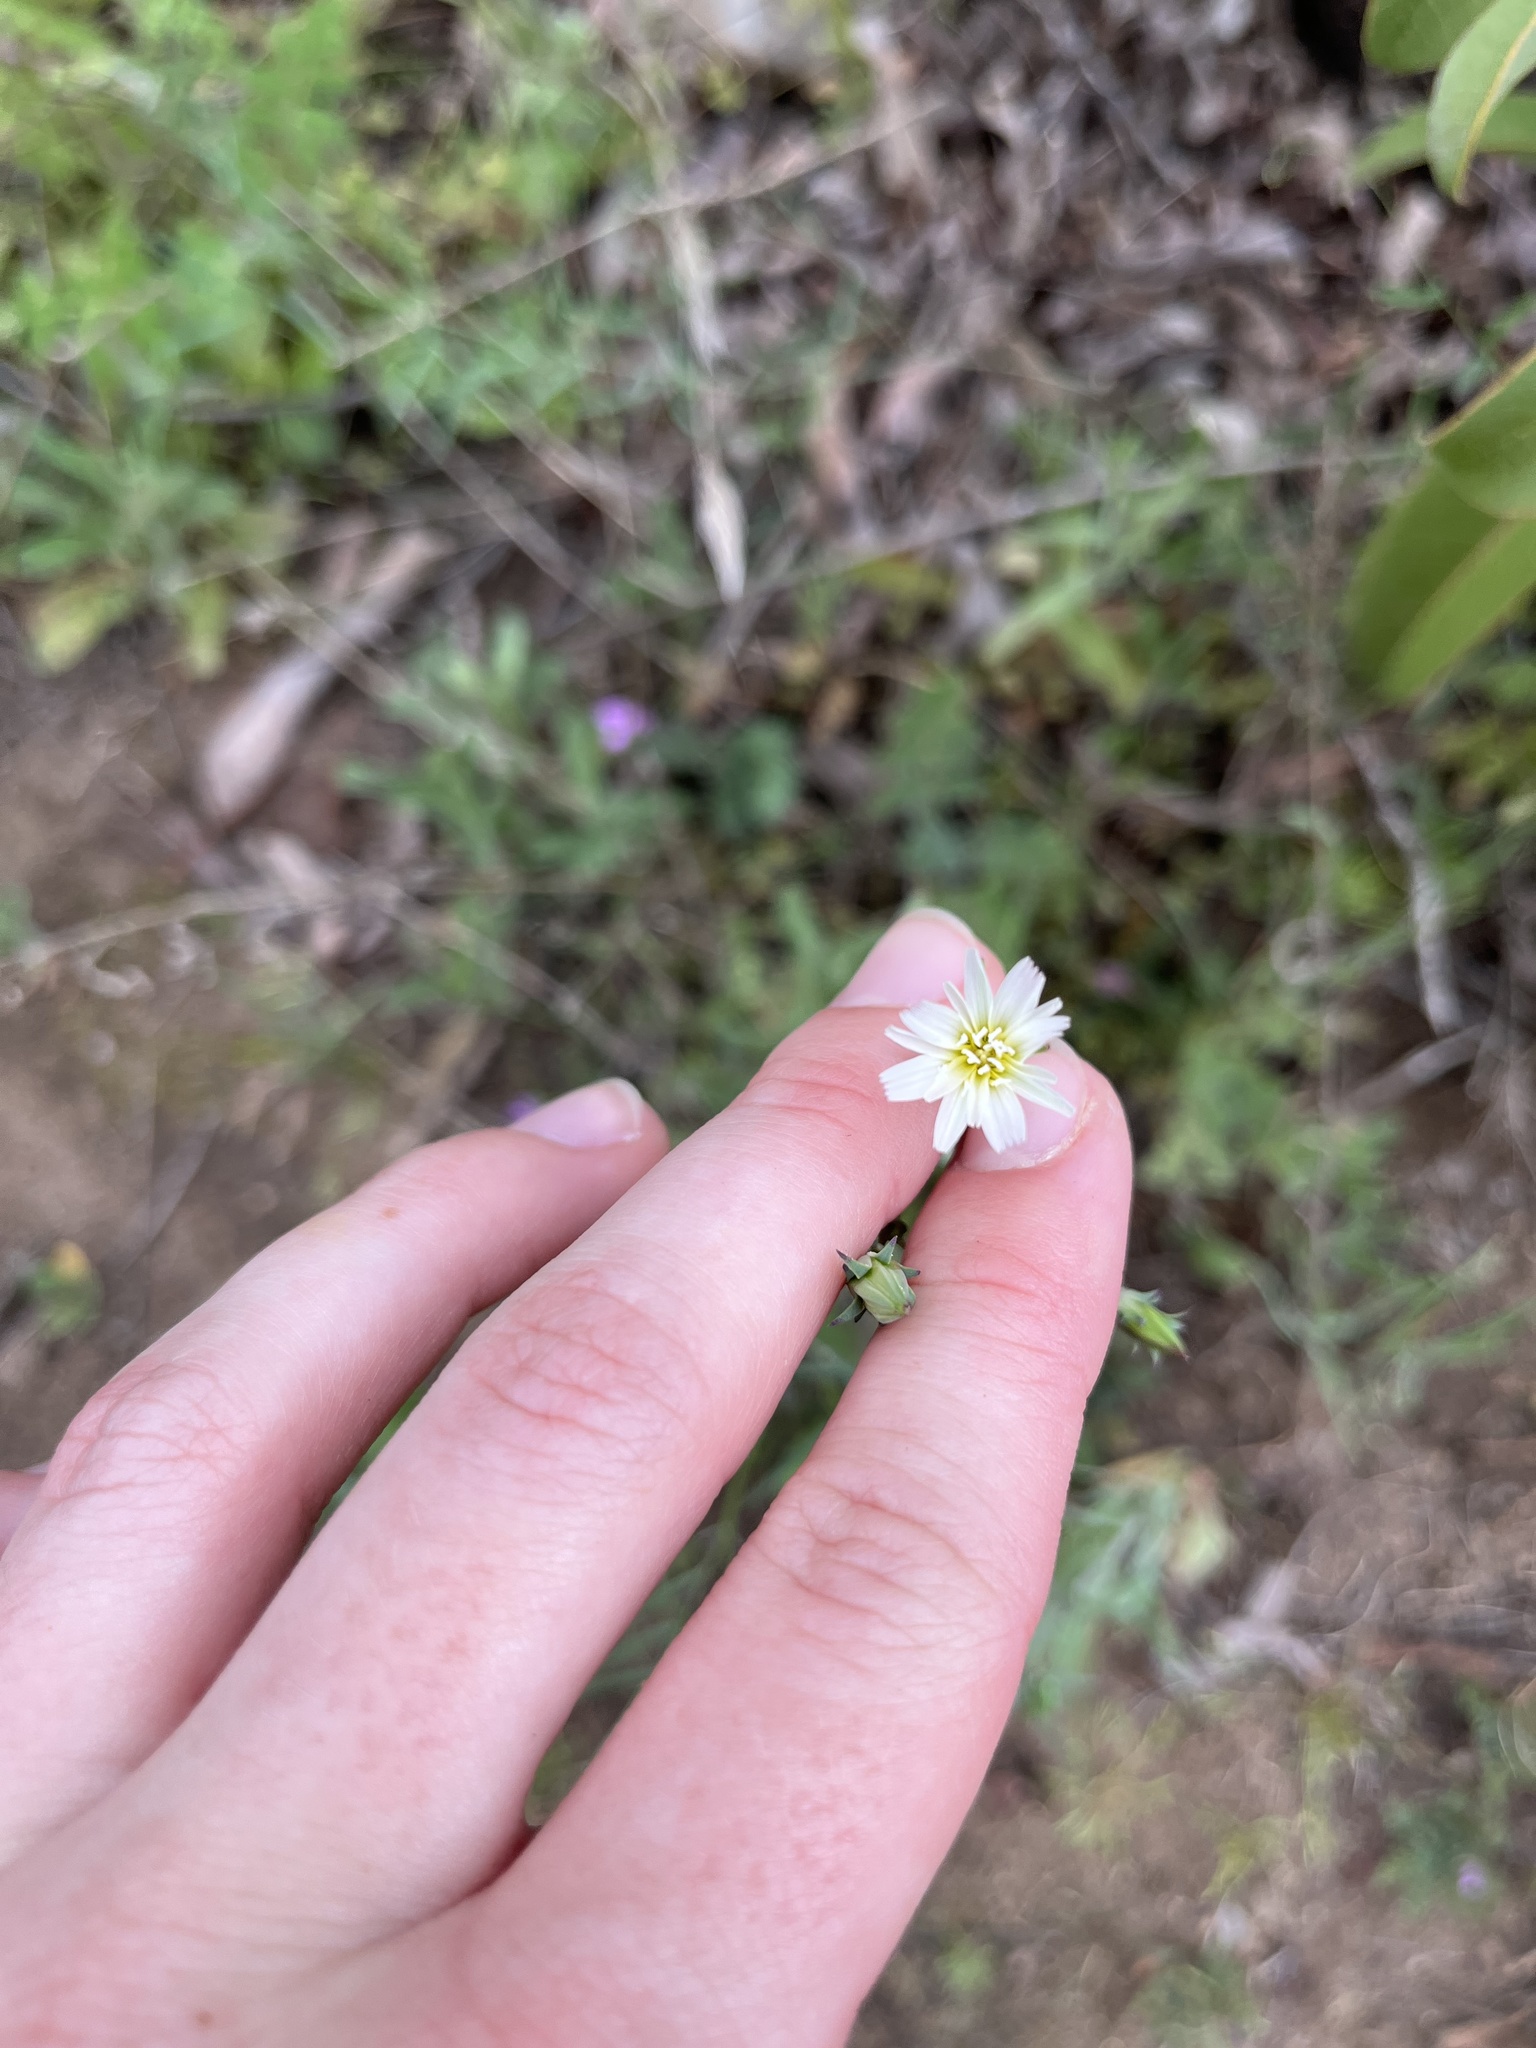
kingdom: Plantae
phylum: Tracheophyta
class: Magnoliopsida
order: Asterales
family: Asteraceae
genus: Rafinesquia
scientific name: Rafinesquia californica
